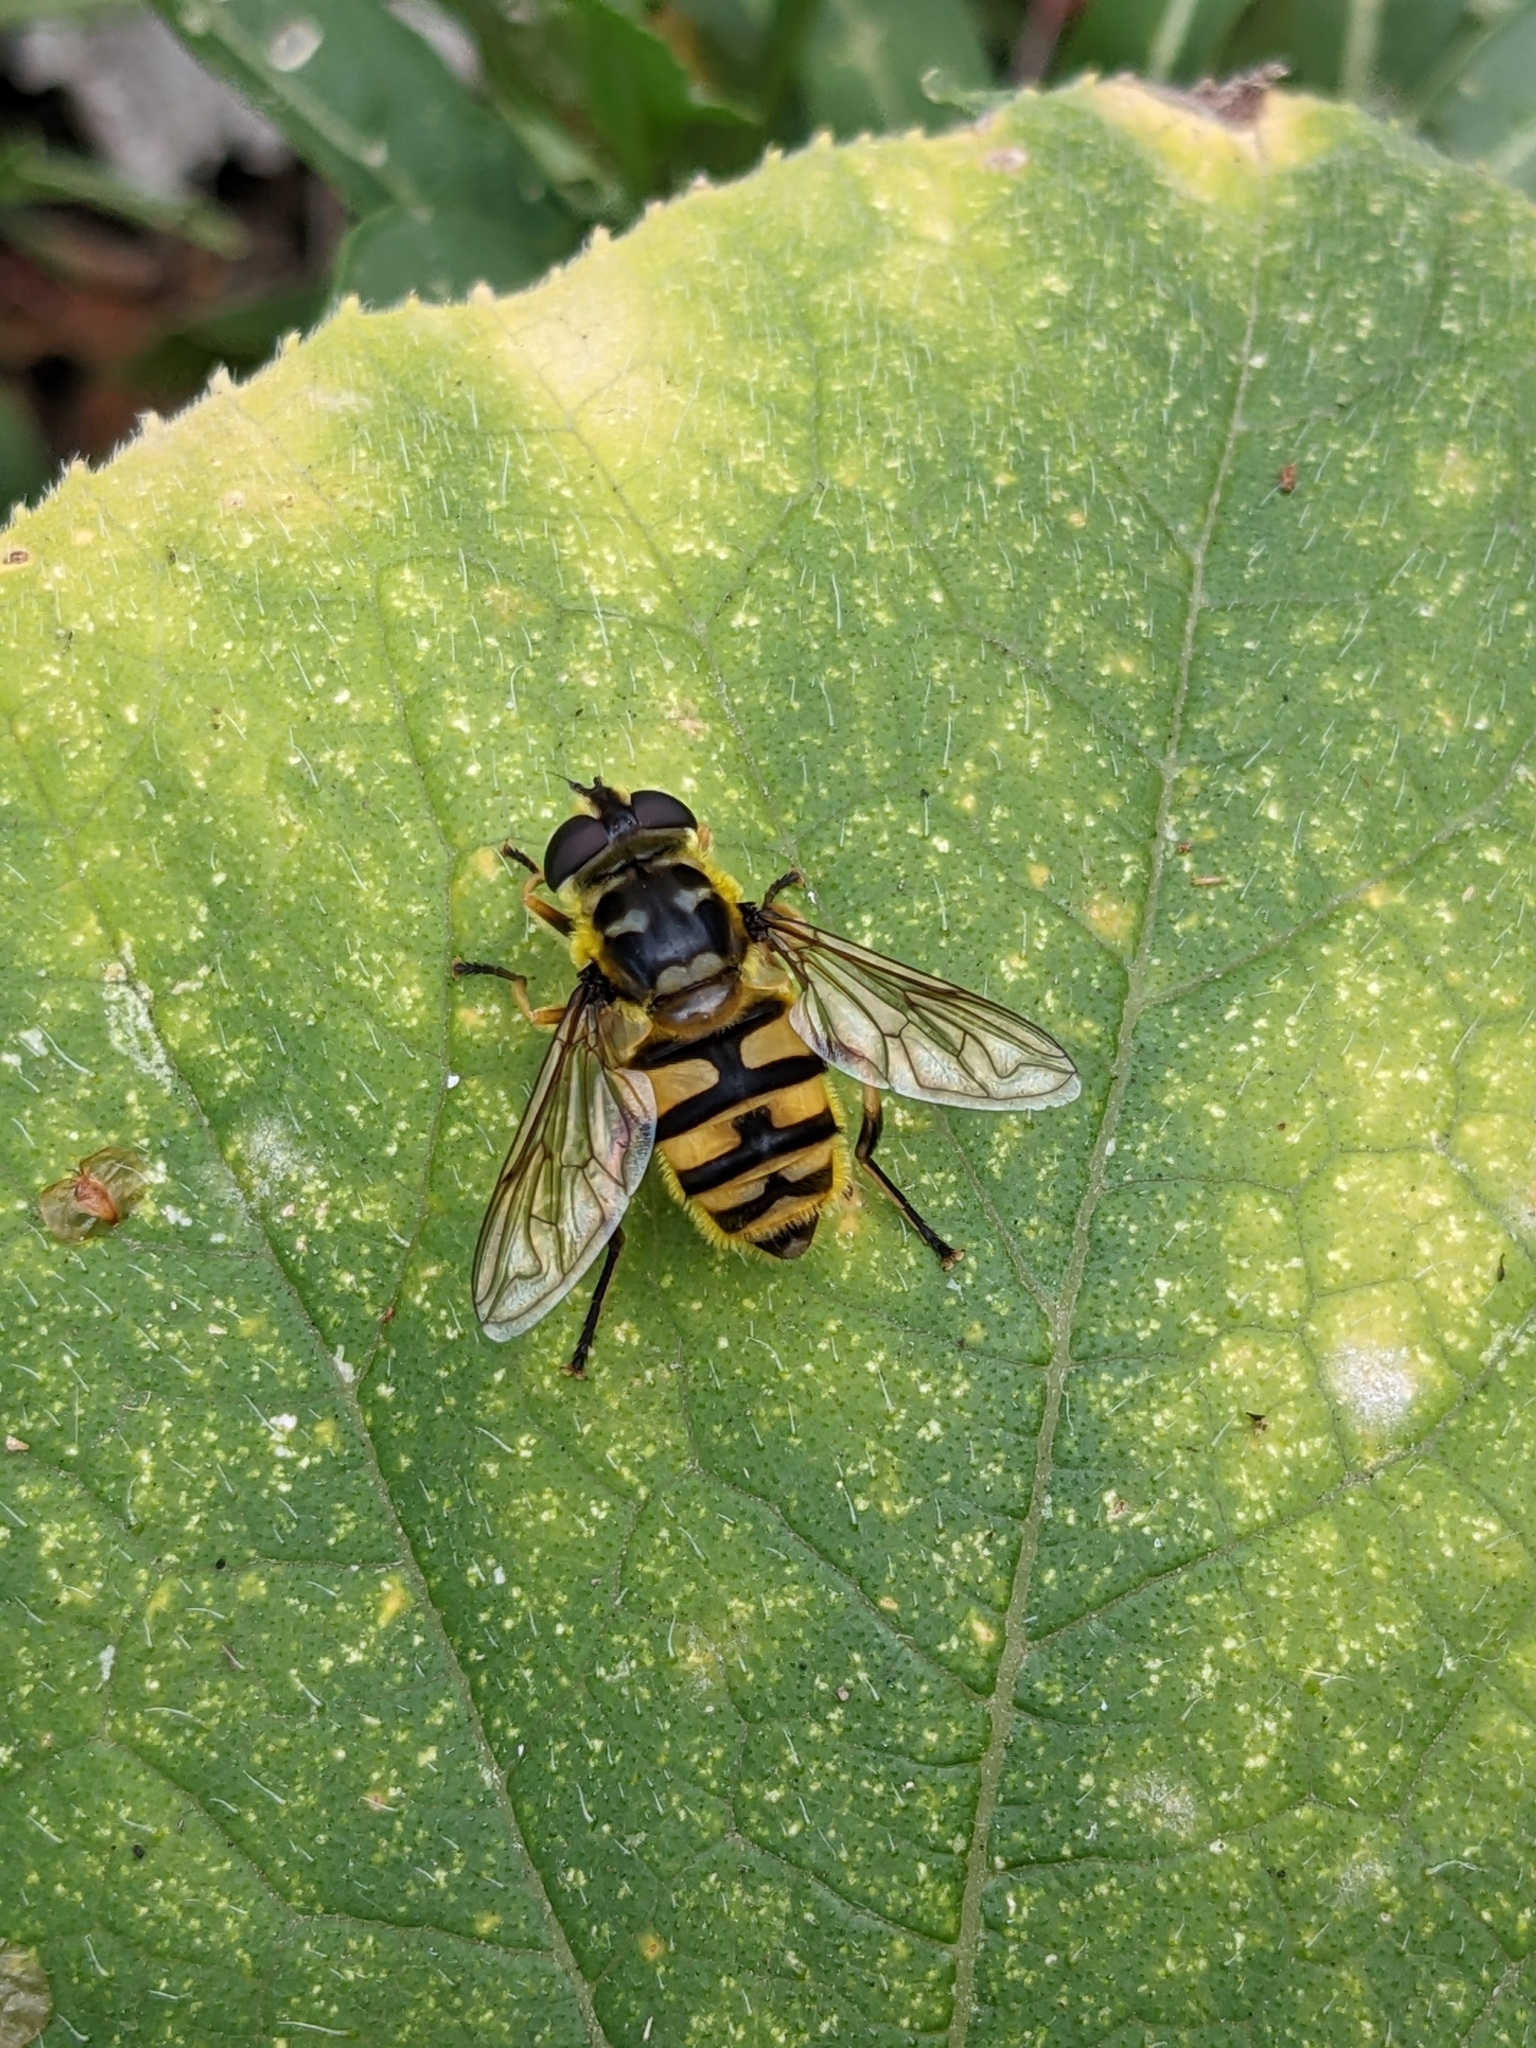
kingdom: Animalia
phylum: Arthropoda
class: Insecta
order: Diptera
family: Syrphidae
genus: Myathropa
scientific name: Myathropa florea
